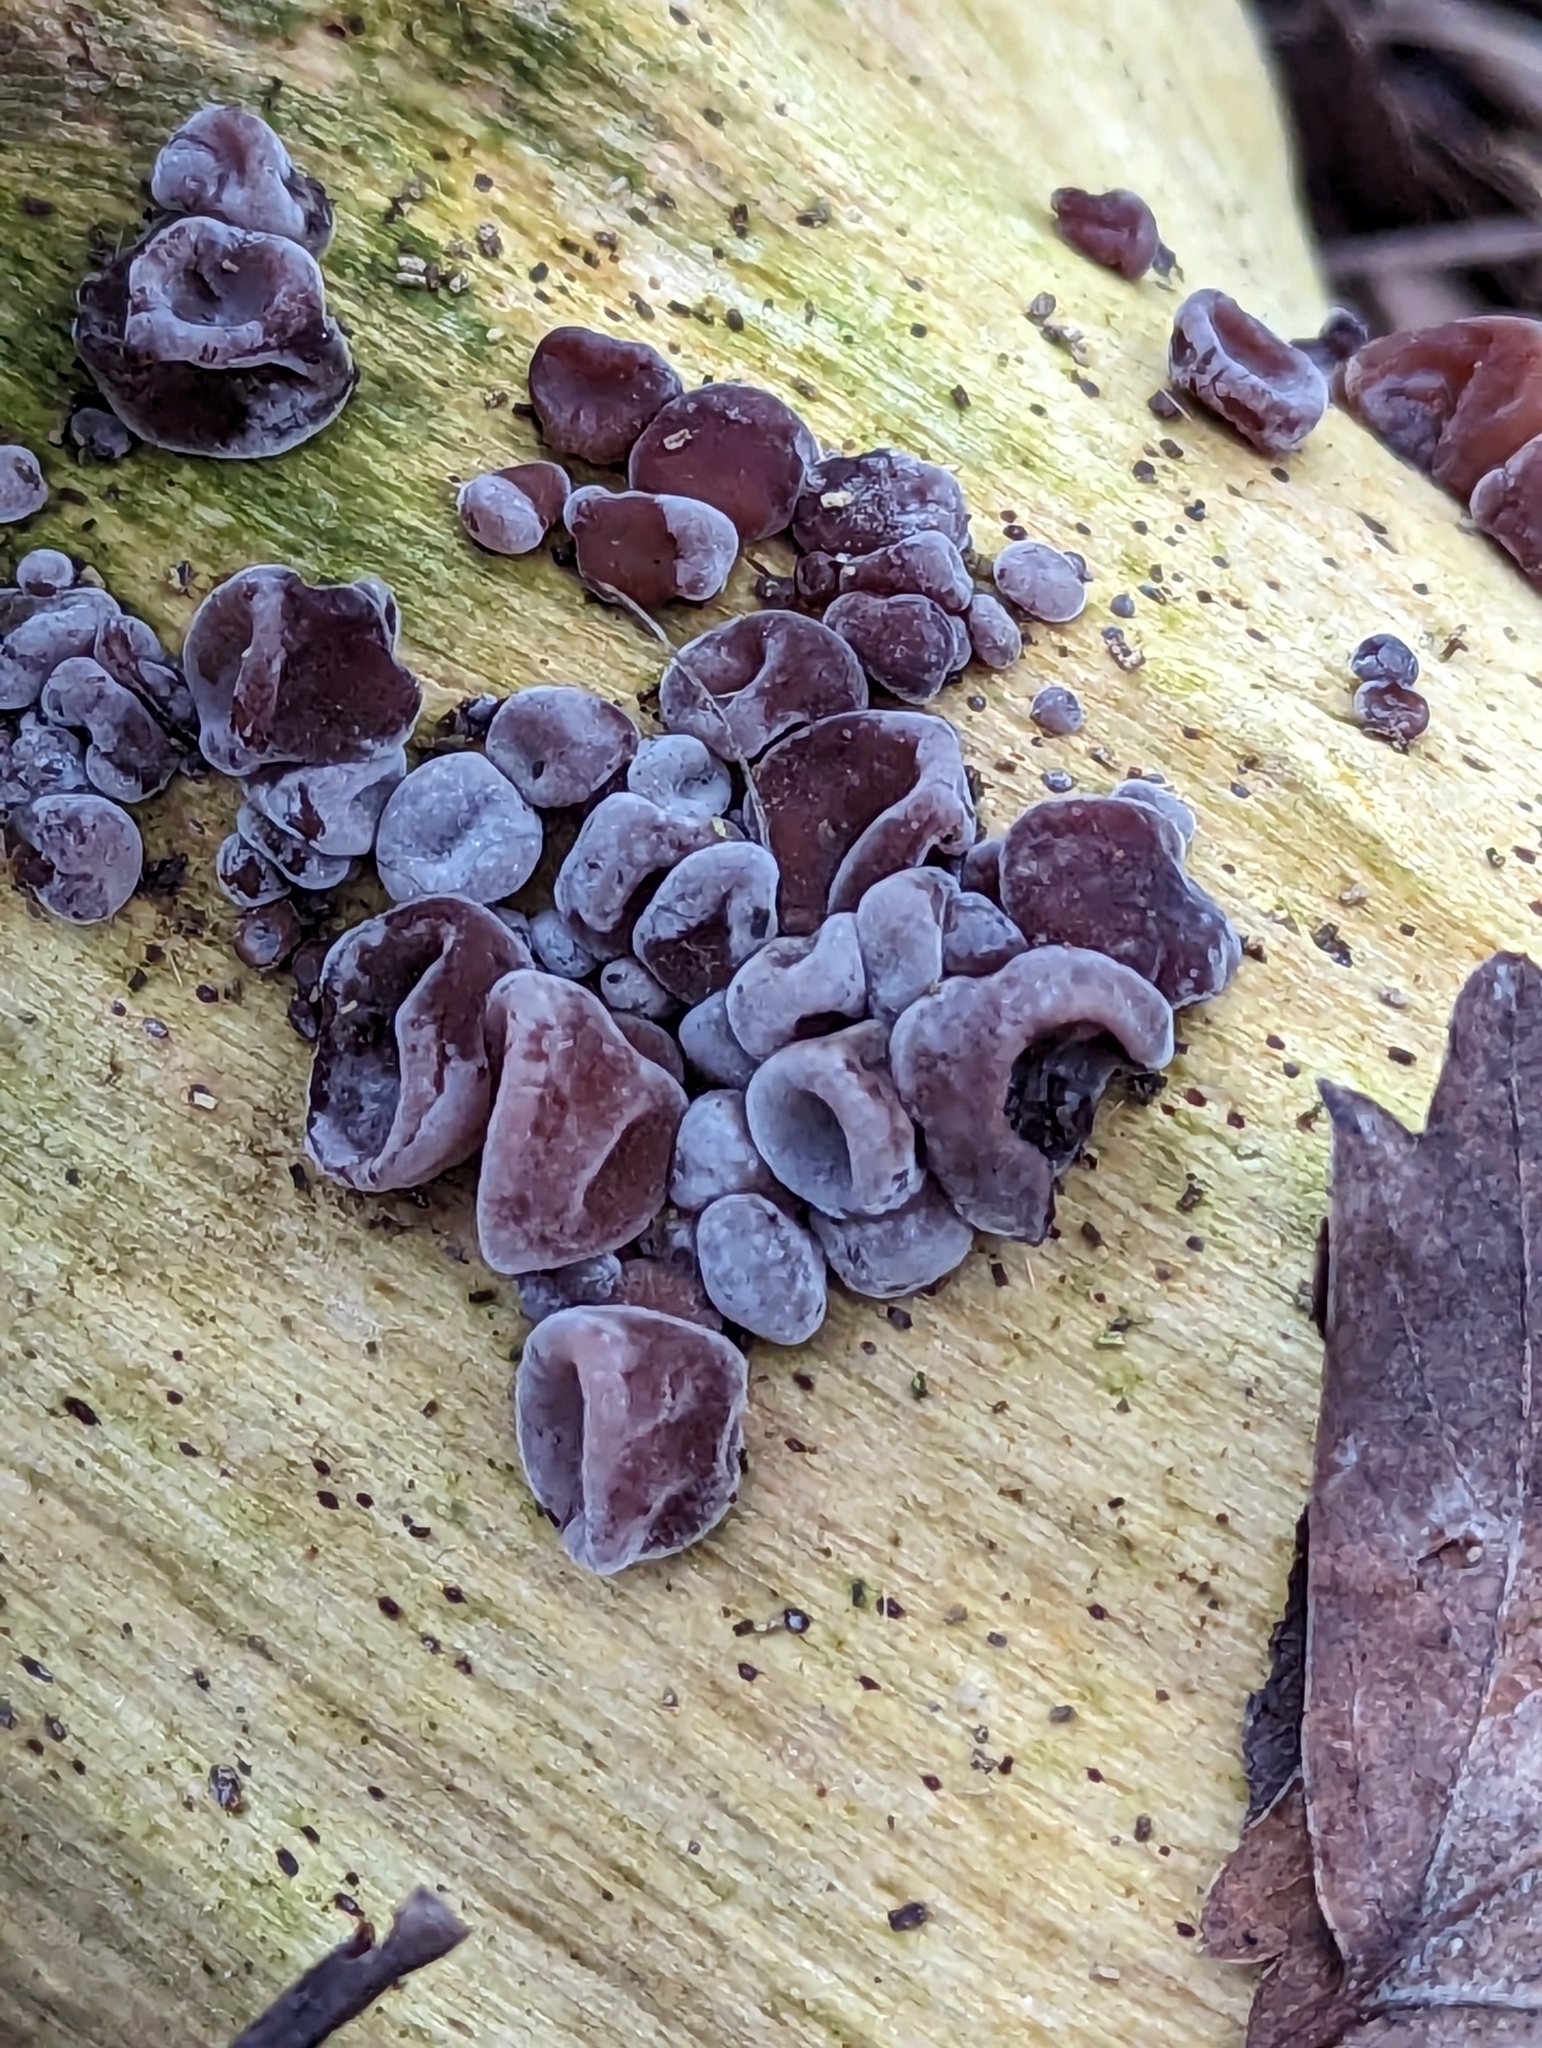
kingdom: Fungi
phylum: Basidiomycota
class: Agaricomycetes
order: Auriculariales
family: Auriculariaceae
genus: Auricularia
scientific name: Auricularia auricula-judae
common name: Jelly ear
